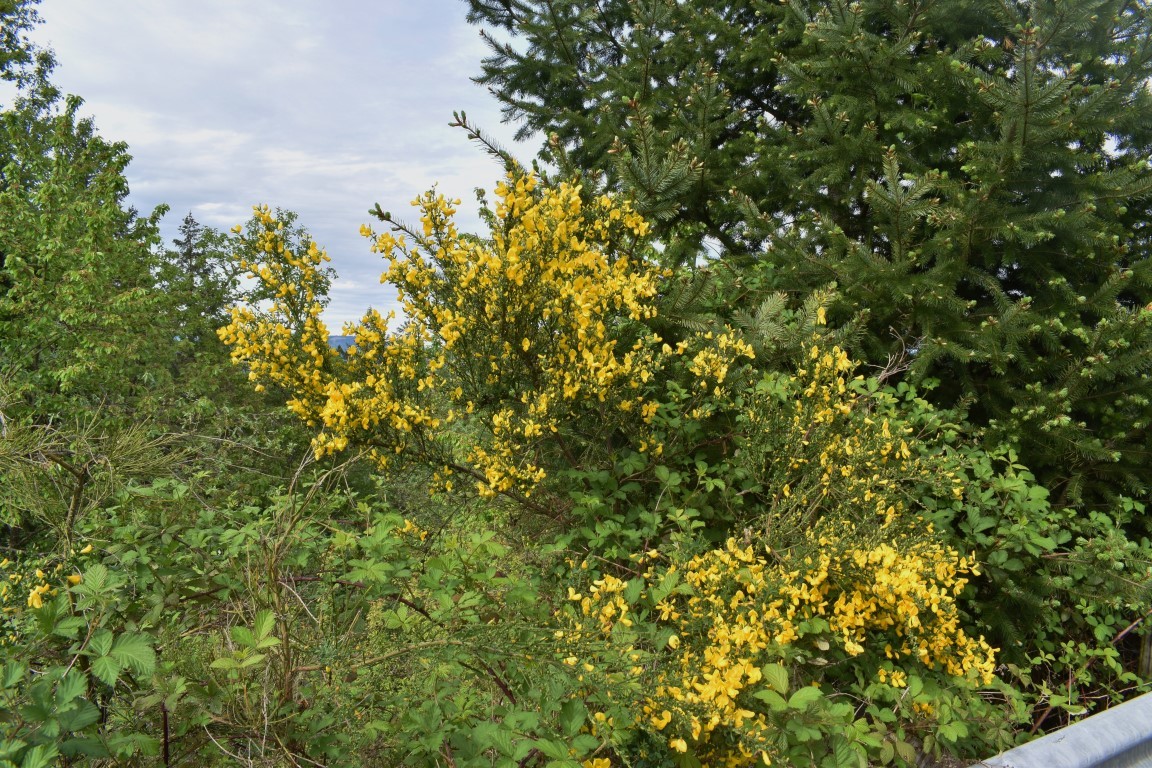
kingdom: Plantae
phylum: Tracheophyta
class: Magnoliopsida
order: Fabales
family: Fabaceae
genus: Cytisus
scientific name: Cytisus scoparius
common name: Scotch broom
